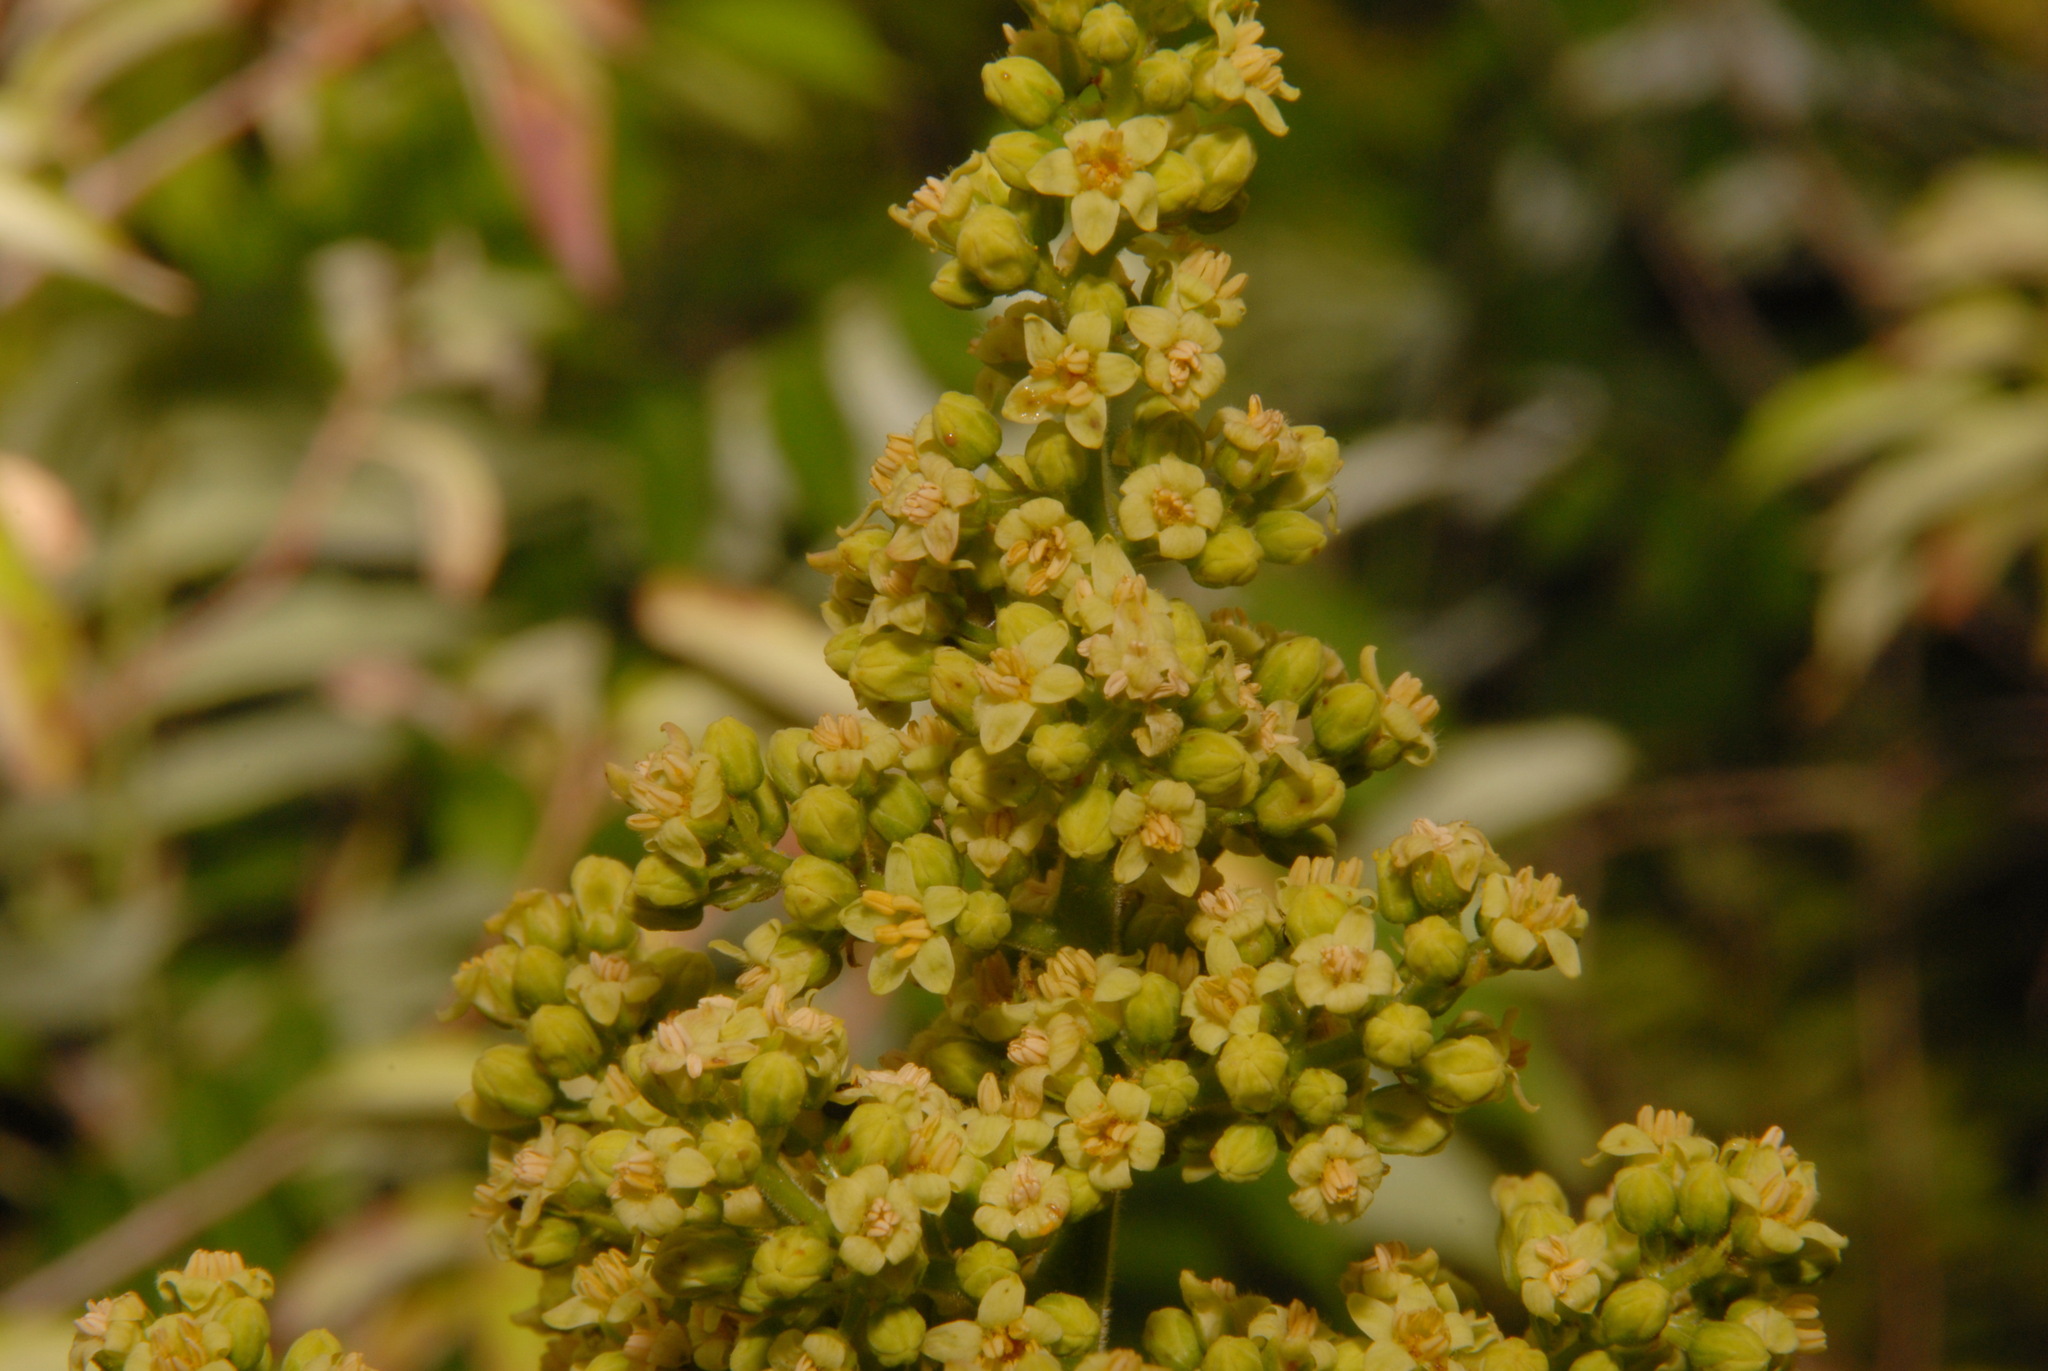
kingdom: Plantae
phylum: Tracheophyta
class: Magnoliopsida
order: Sapindales
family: Anacardiaceae
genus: Rhus
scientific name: Rhus glabra
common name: Scarlet sumac
